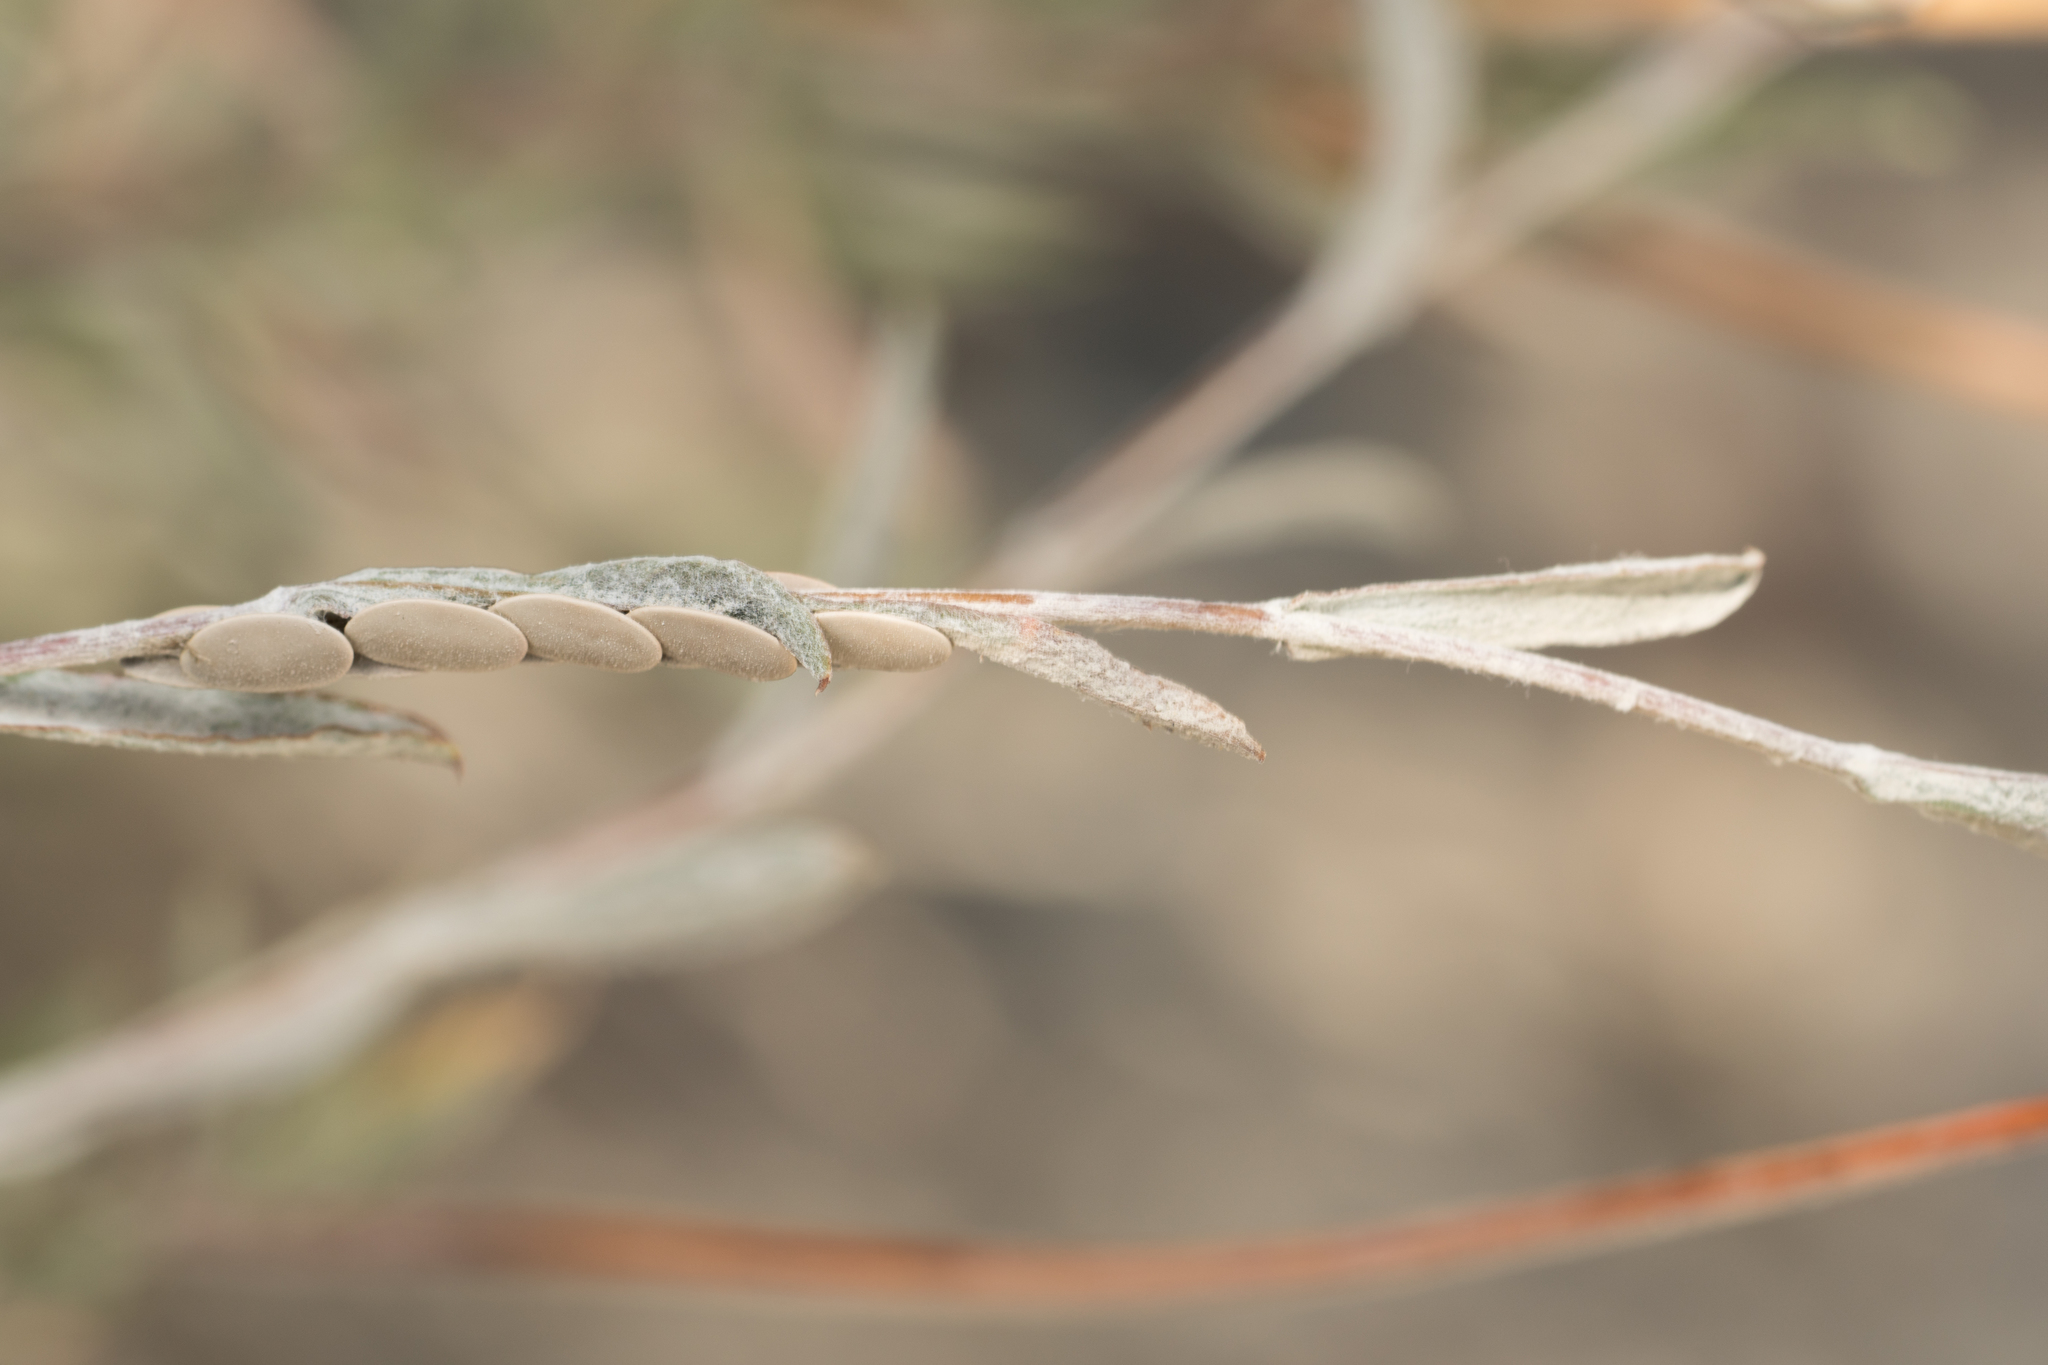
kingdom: Plantae
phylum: Tracheophyta
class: Magnoliopsida
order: Asterales
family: Asteraceae
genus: Corethrogyne
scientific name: Corethrogyne filaginifolia
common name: Sand-aster
